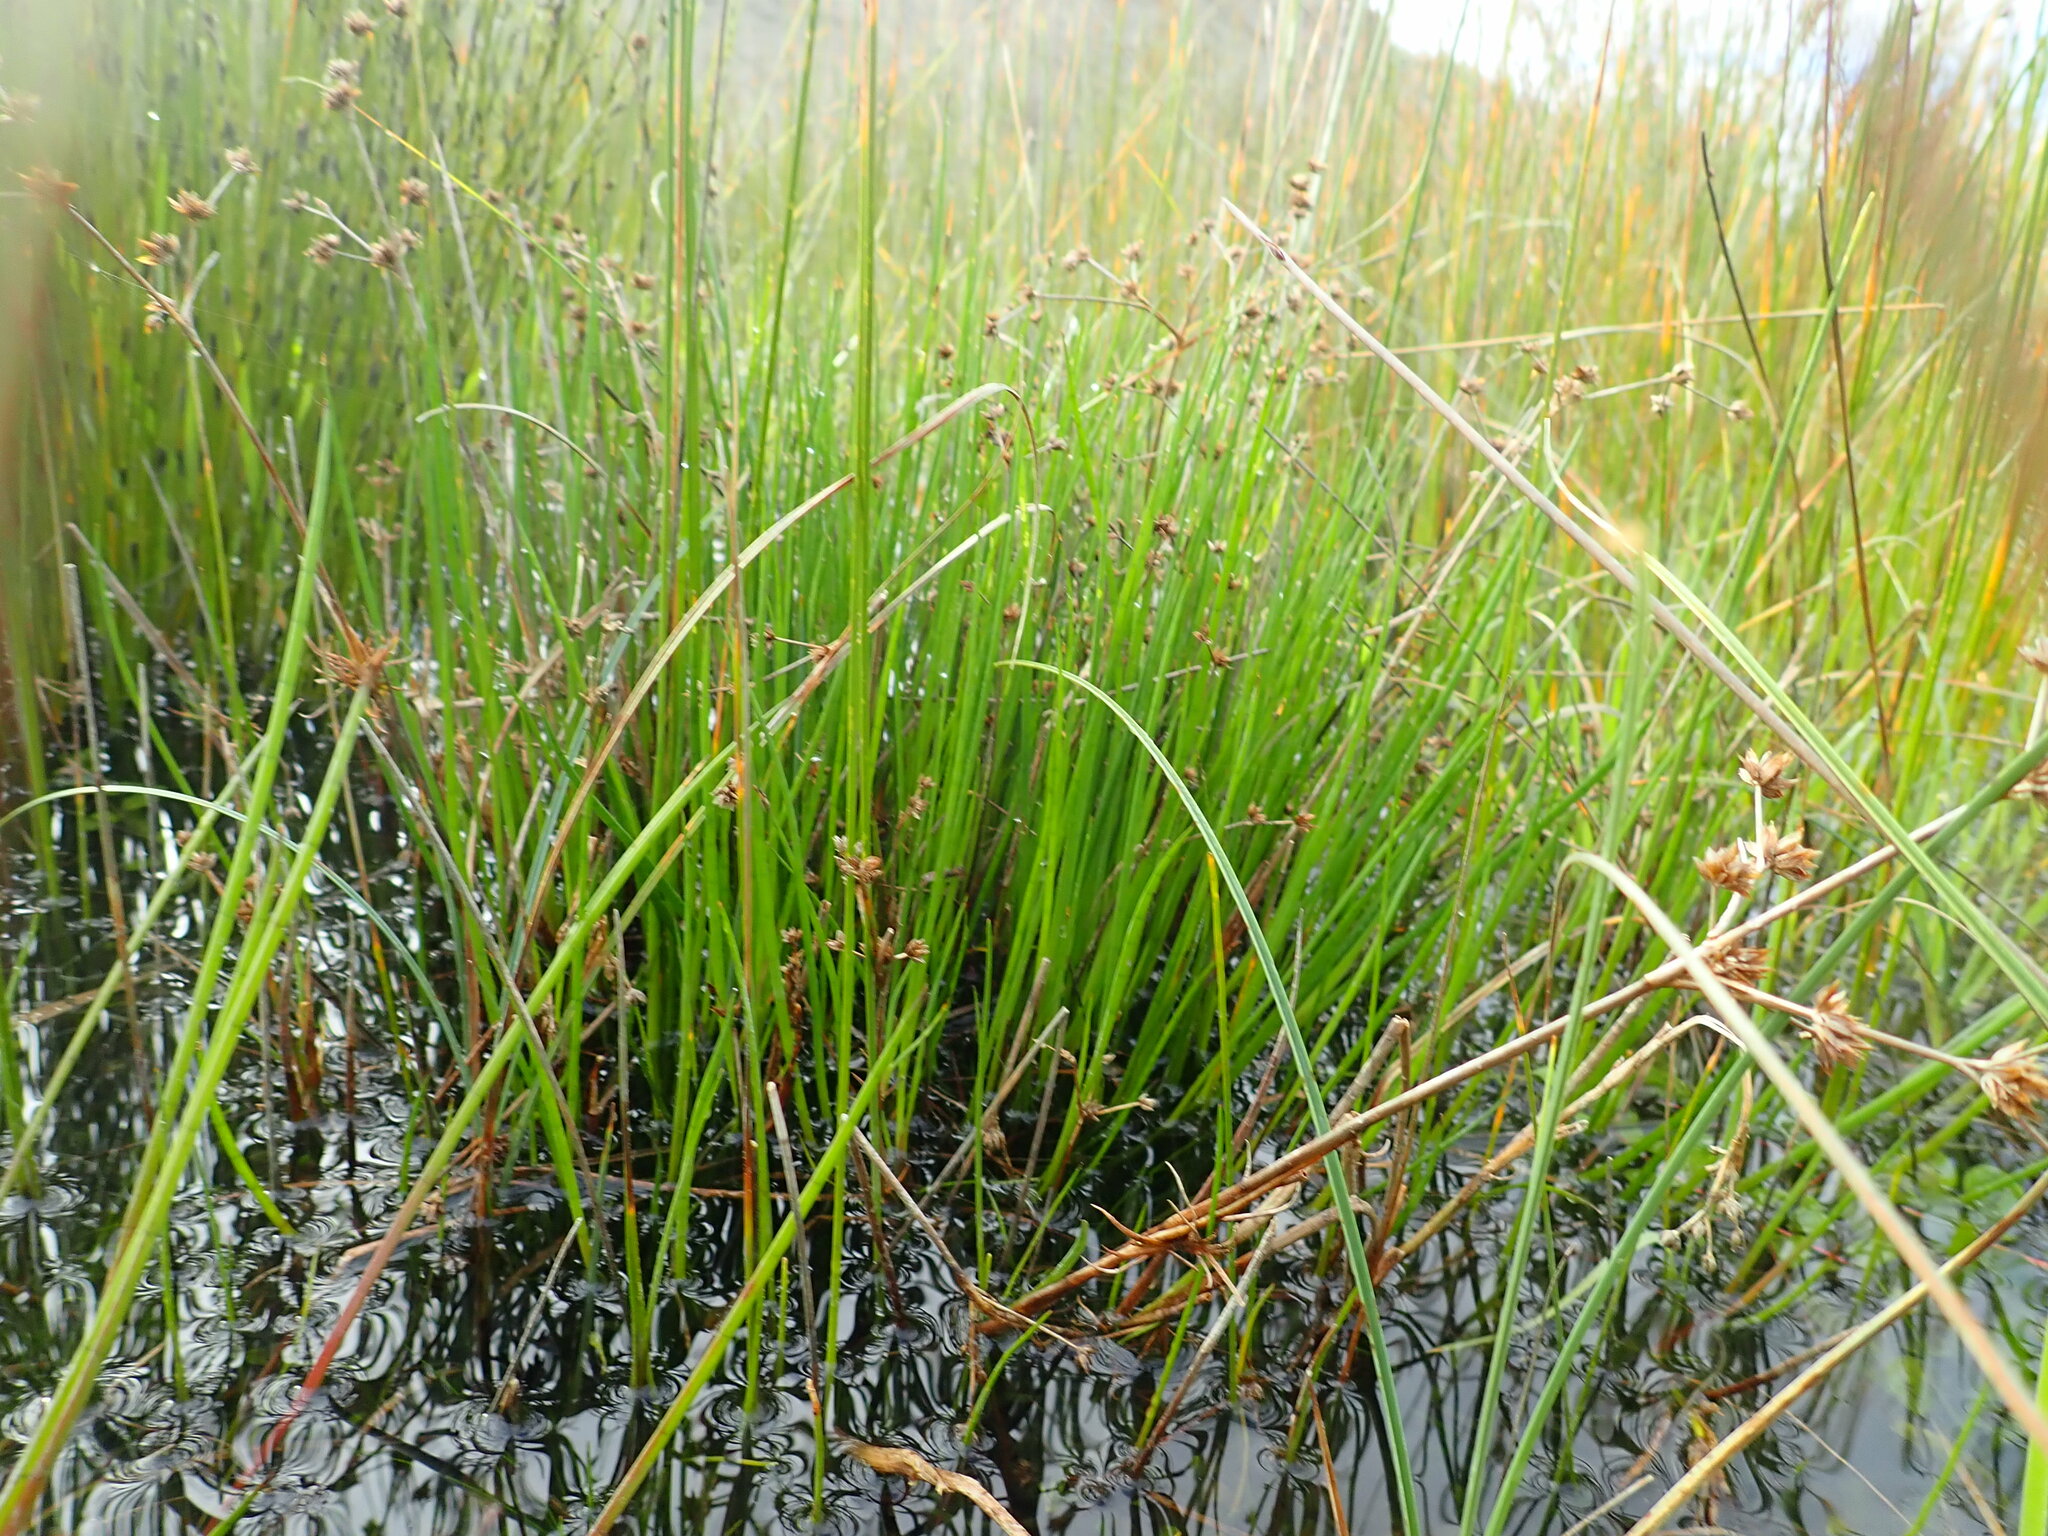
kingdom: Plantae
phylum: Tracheophyta
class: Liliopsida
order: Poales
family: Juncaceae
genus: Juncus
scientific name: Juncus articulatus
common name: Jointed rush
